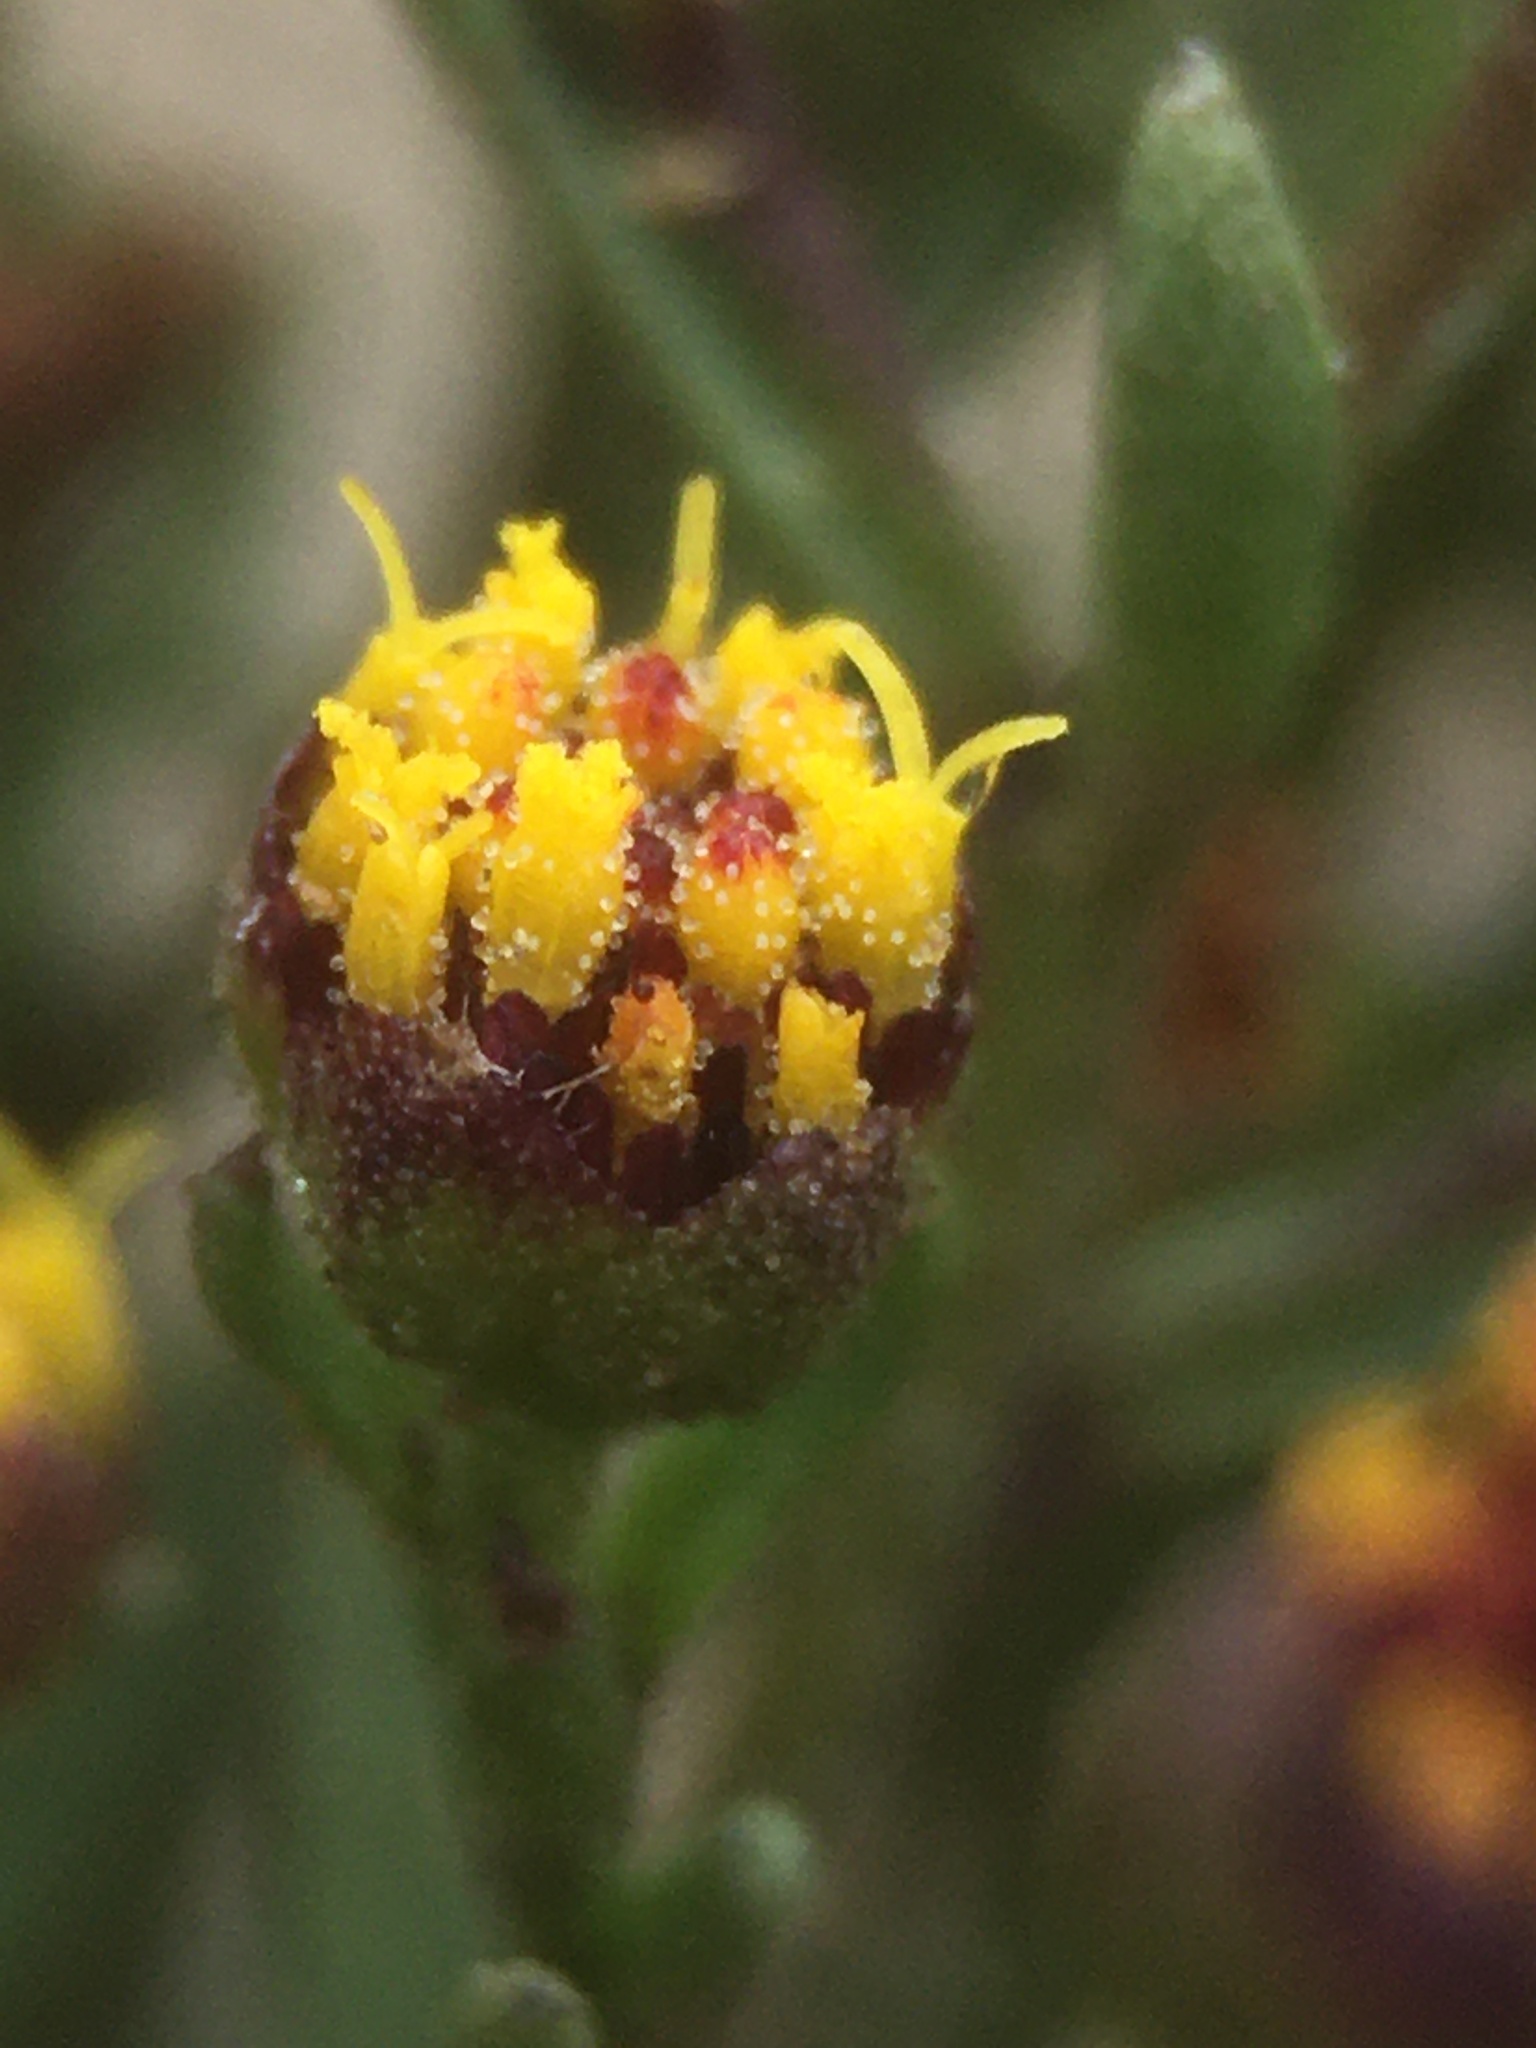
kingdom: Plantae
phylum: Tracheophyta
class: Magnoliopsida
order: Asterales
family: Asteraceae
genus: Amblyopappus
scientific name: Amblyopappus pusillus
